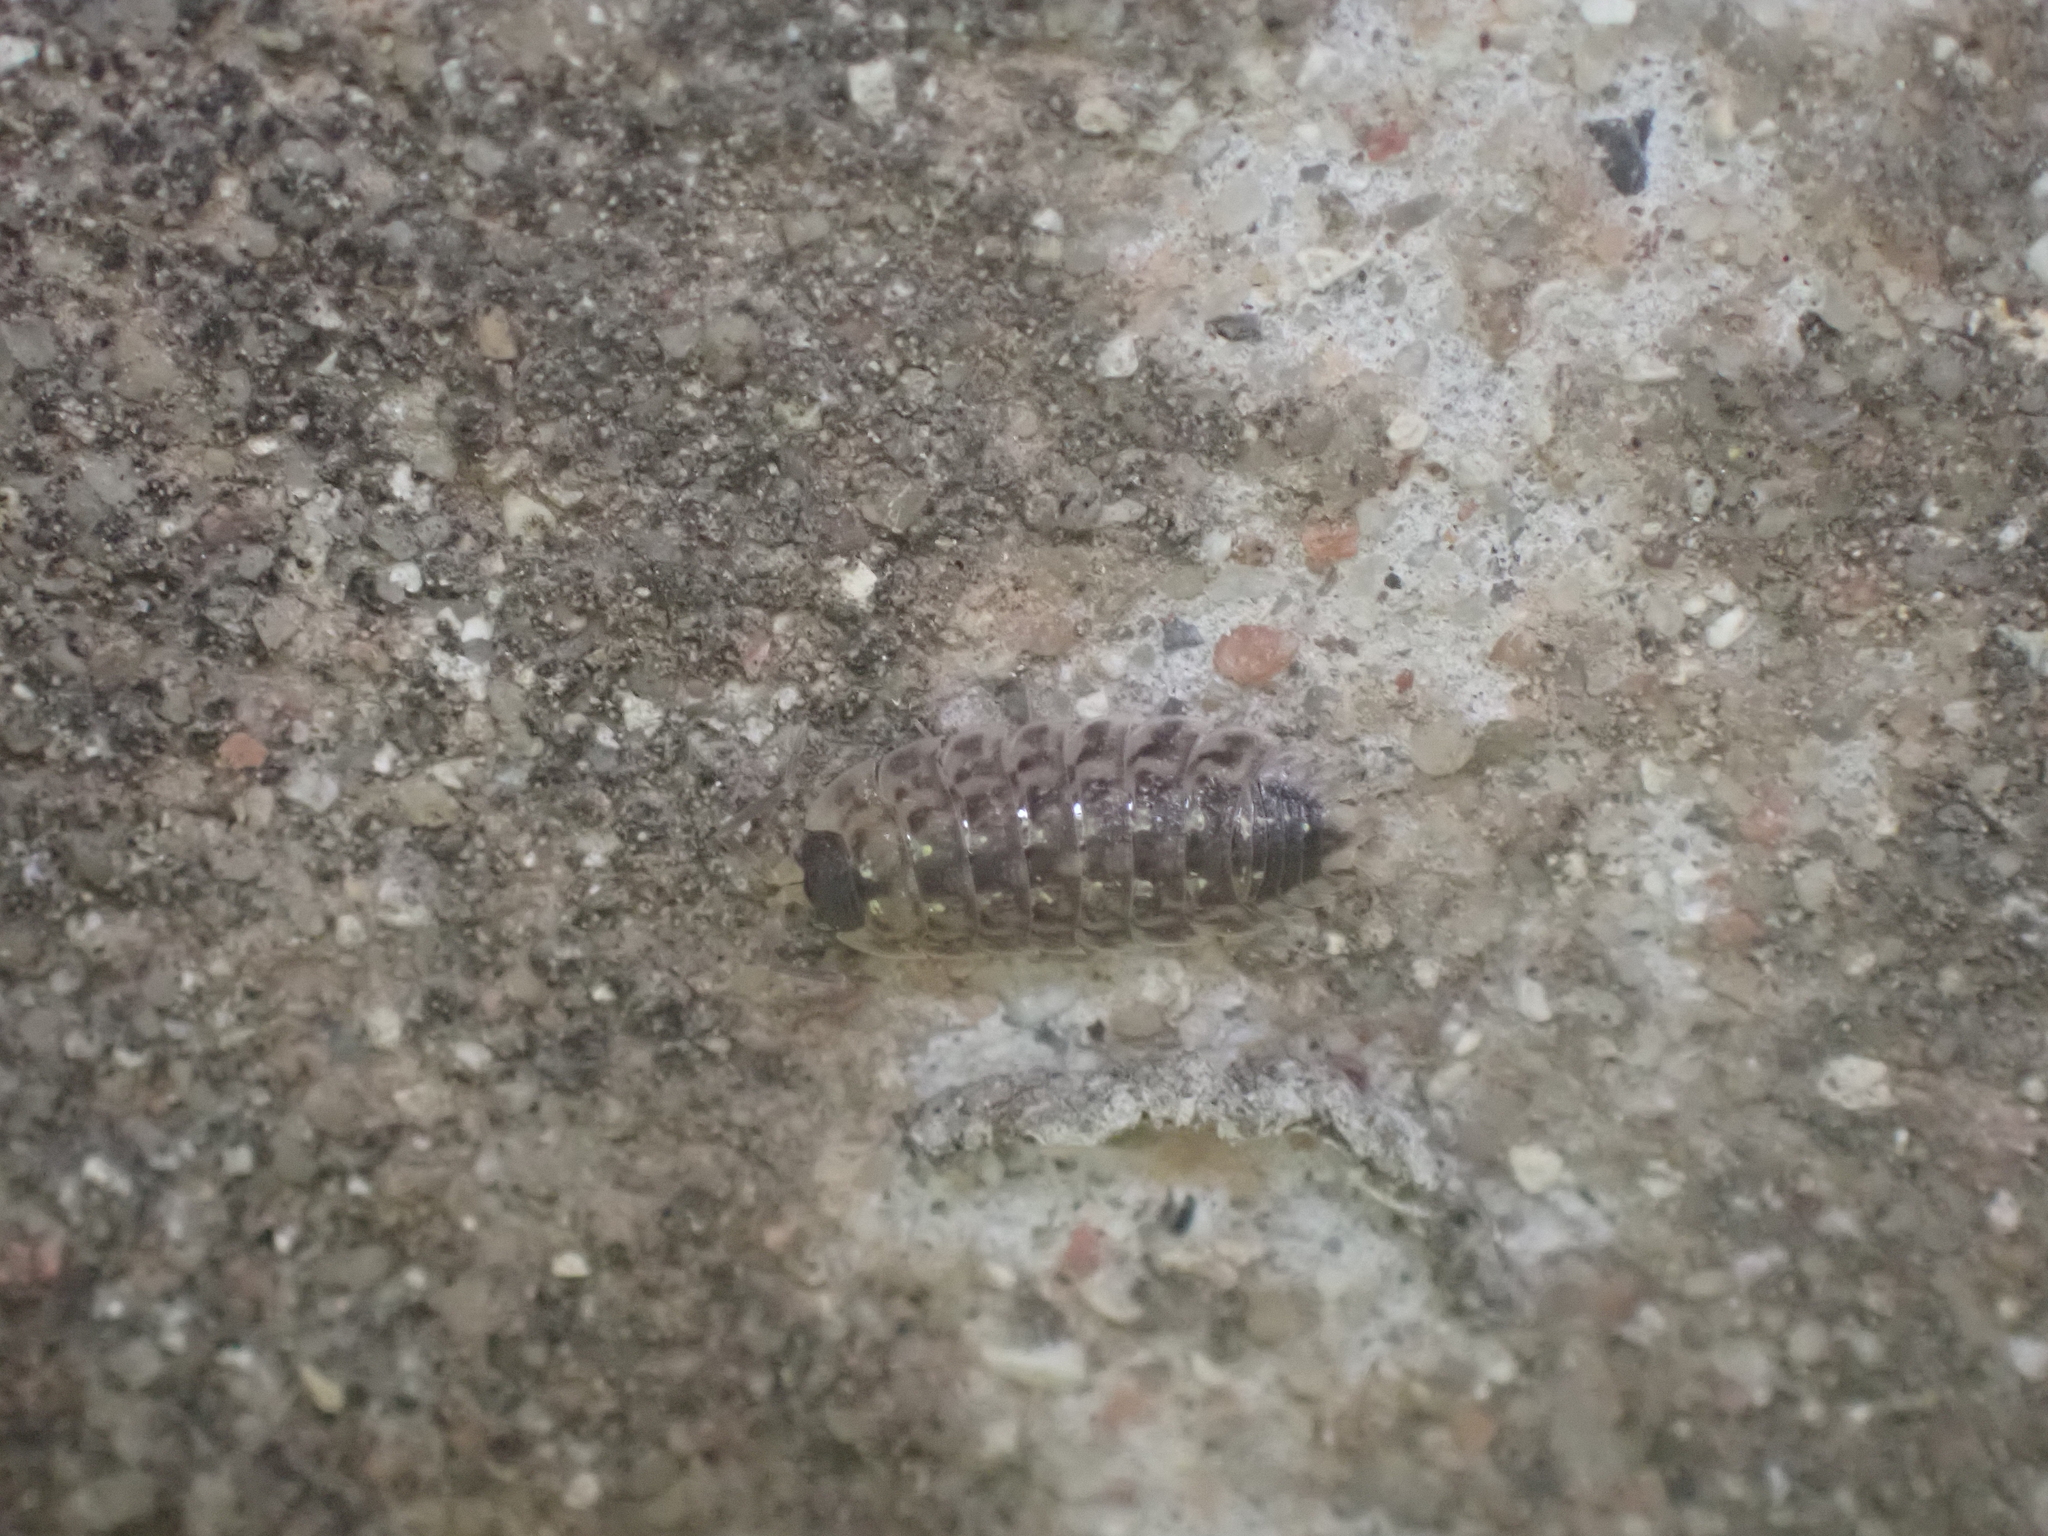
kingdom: Animalia
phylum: Arthropoda
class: Malacostraca
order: Isopoda
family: Porcellionidae
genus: Porcellio
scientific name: Porcellio spinicornis
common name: Painted woodlouse
